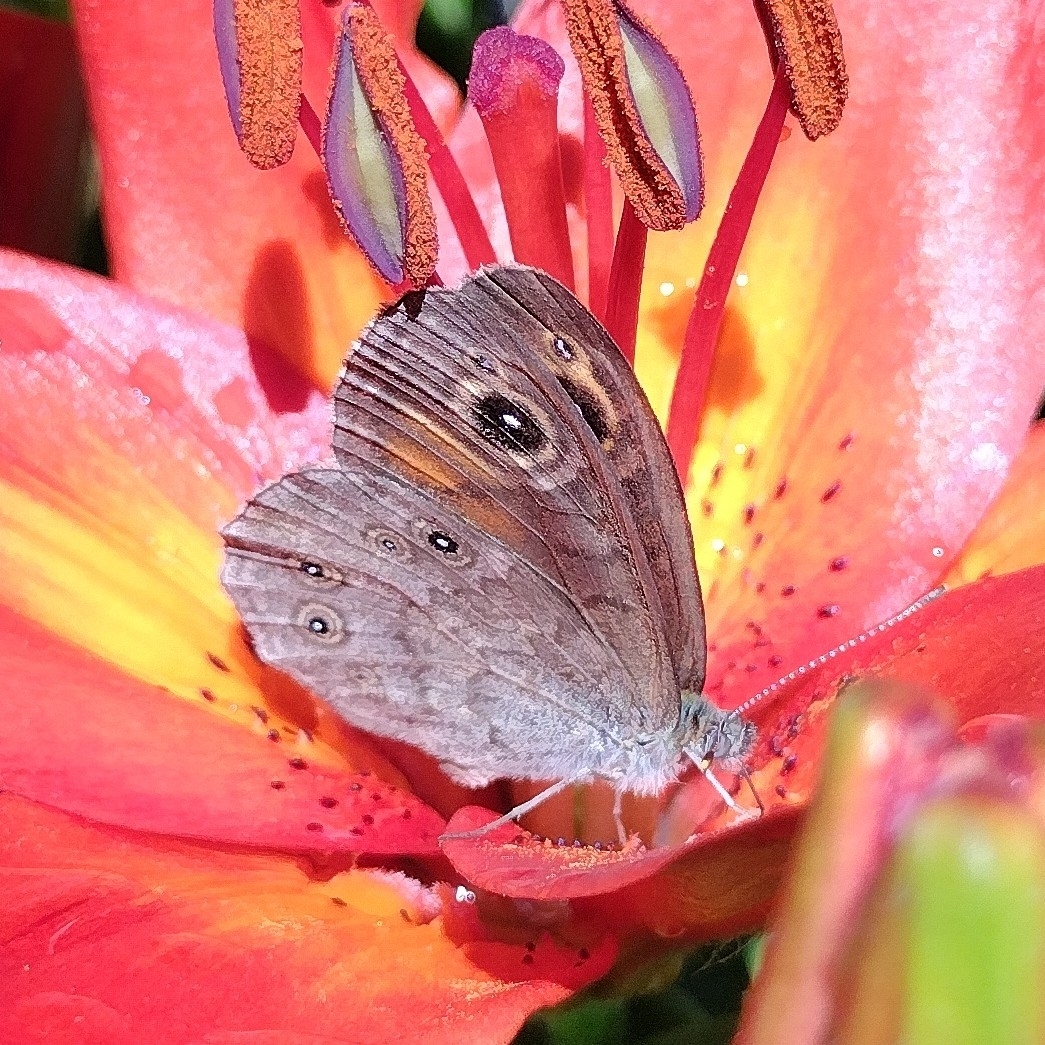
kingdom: Animalia
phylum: Arthropoda
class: Insecta
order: Lepidoptera
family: Nymphalidae
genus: Pararge
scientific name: Pararge Lasiommata maera
